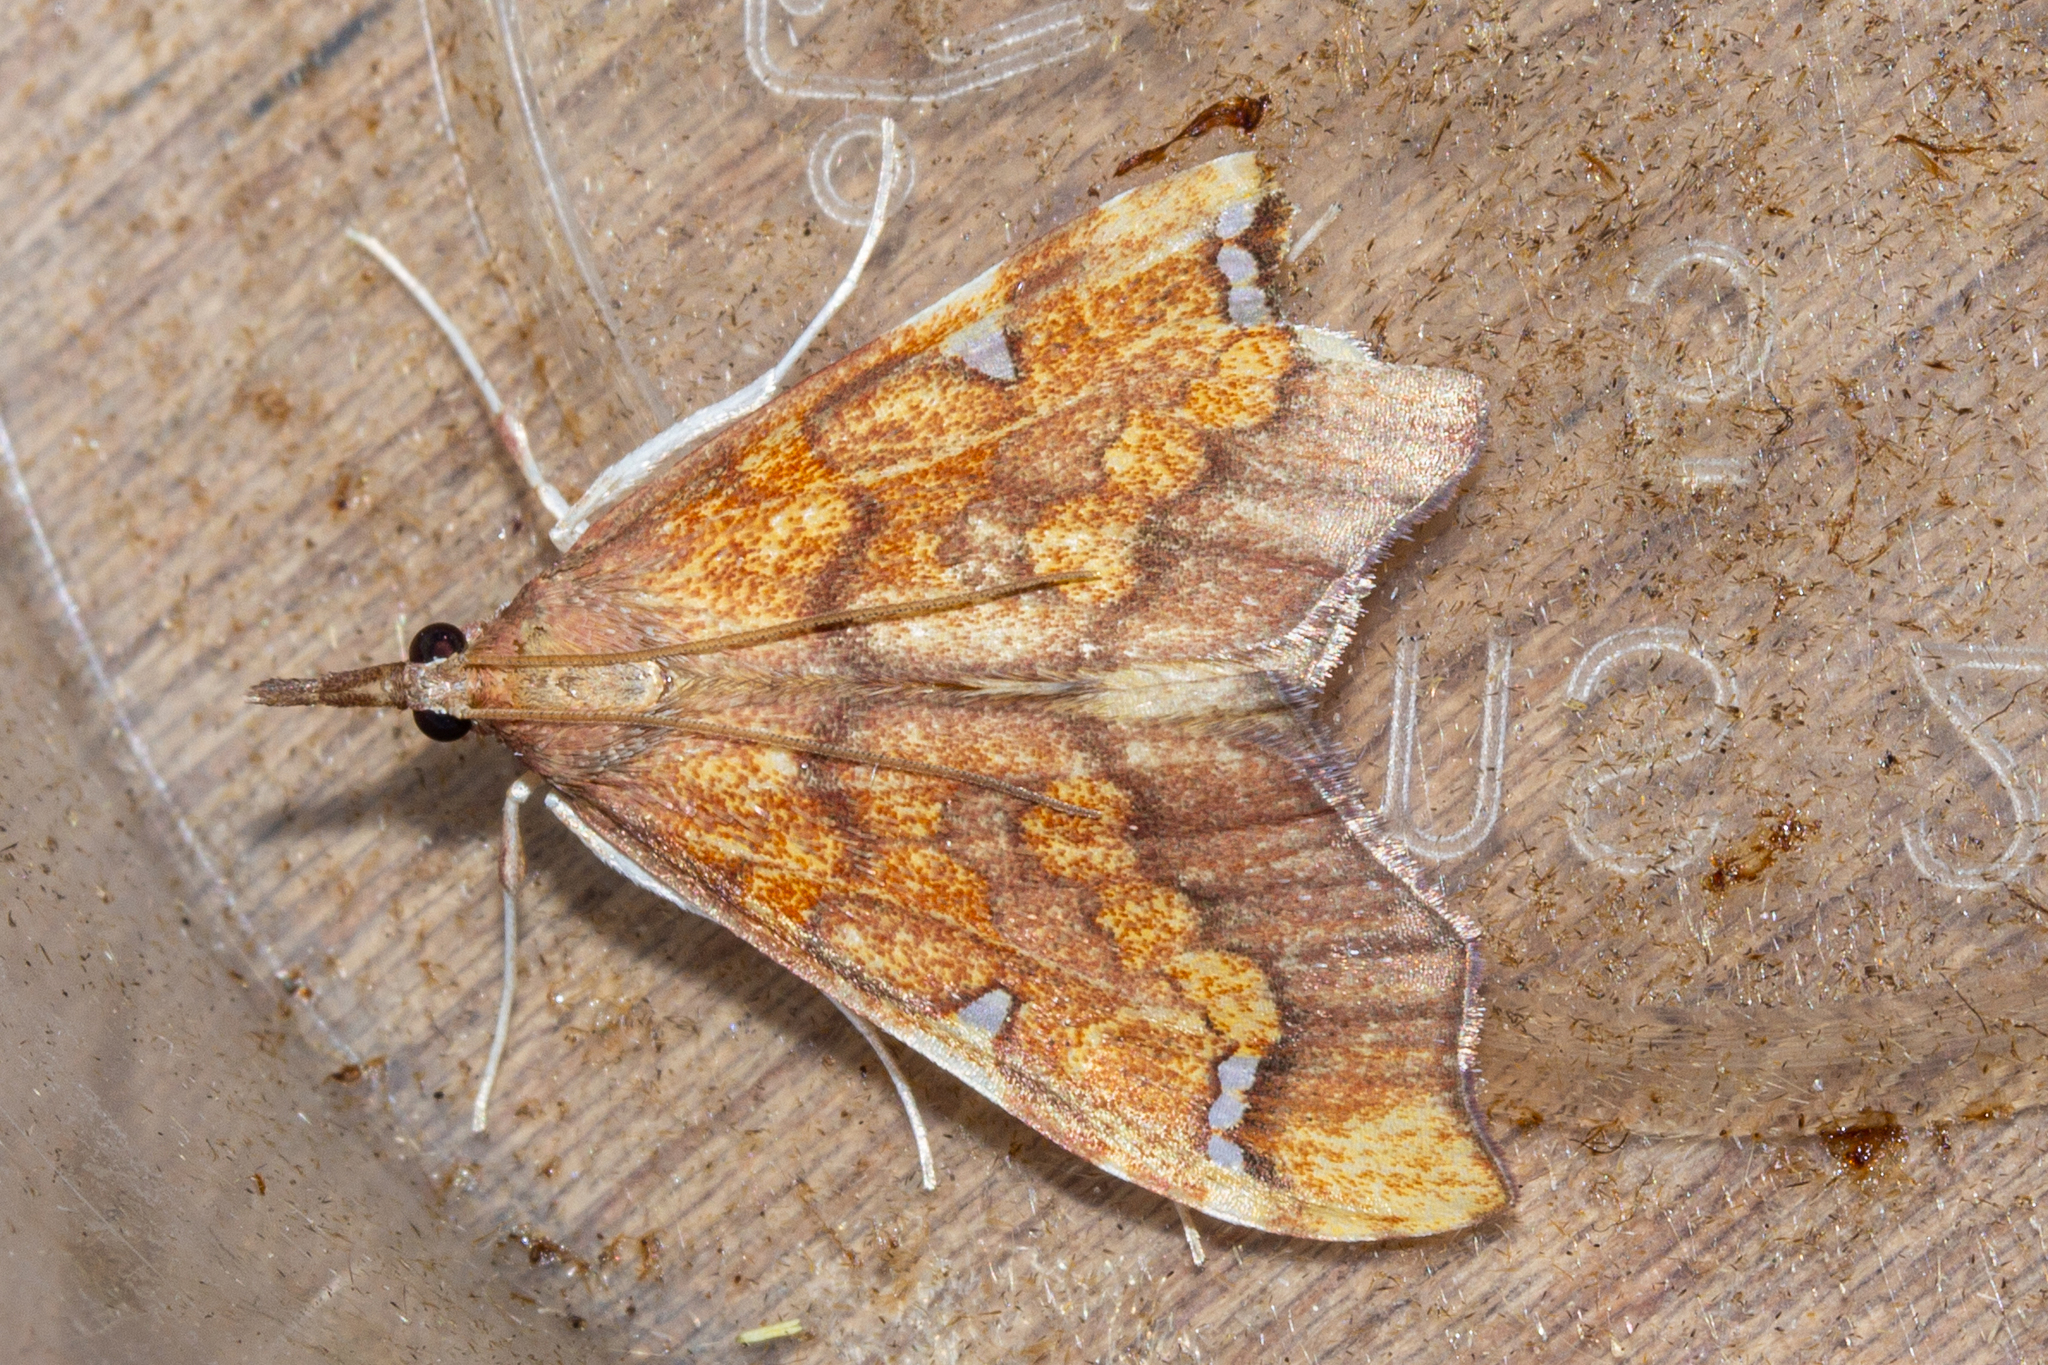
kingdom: Animalia
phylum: Arthropoda
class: Insecta
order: Lepidoptera
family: Crambidae
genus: Deana
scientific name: Deana hybreasalis
